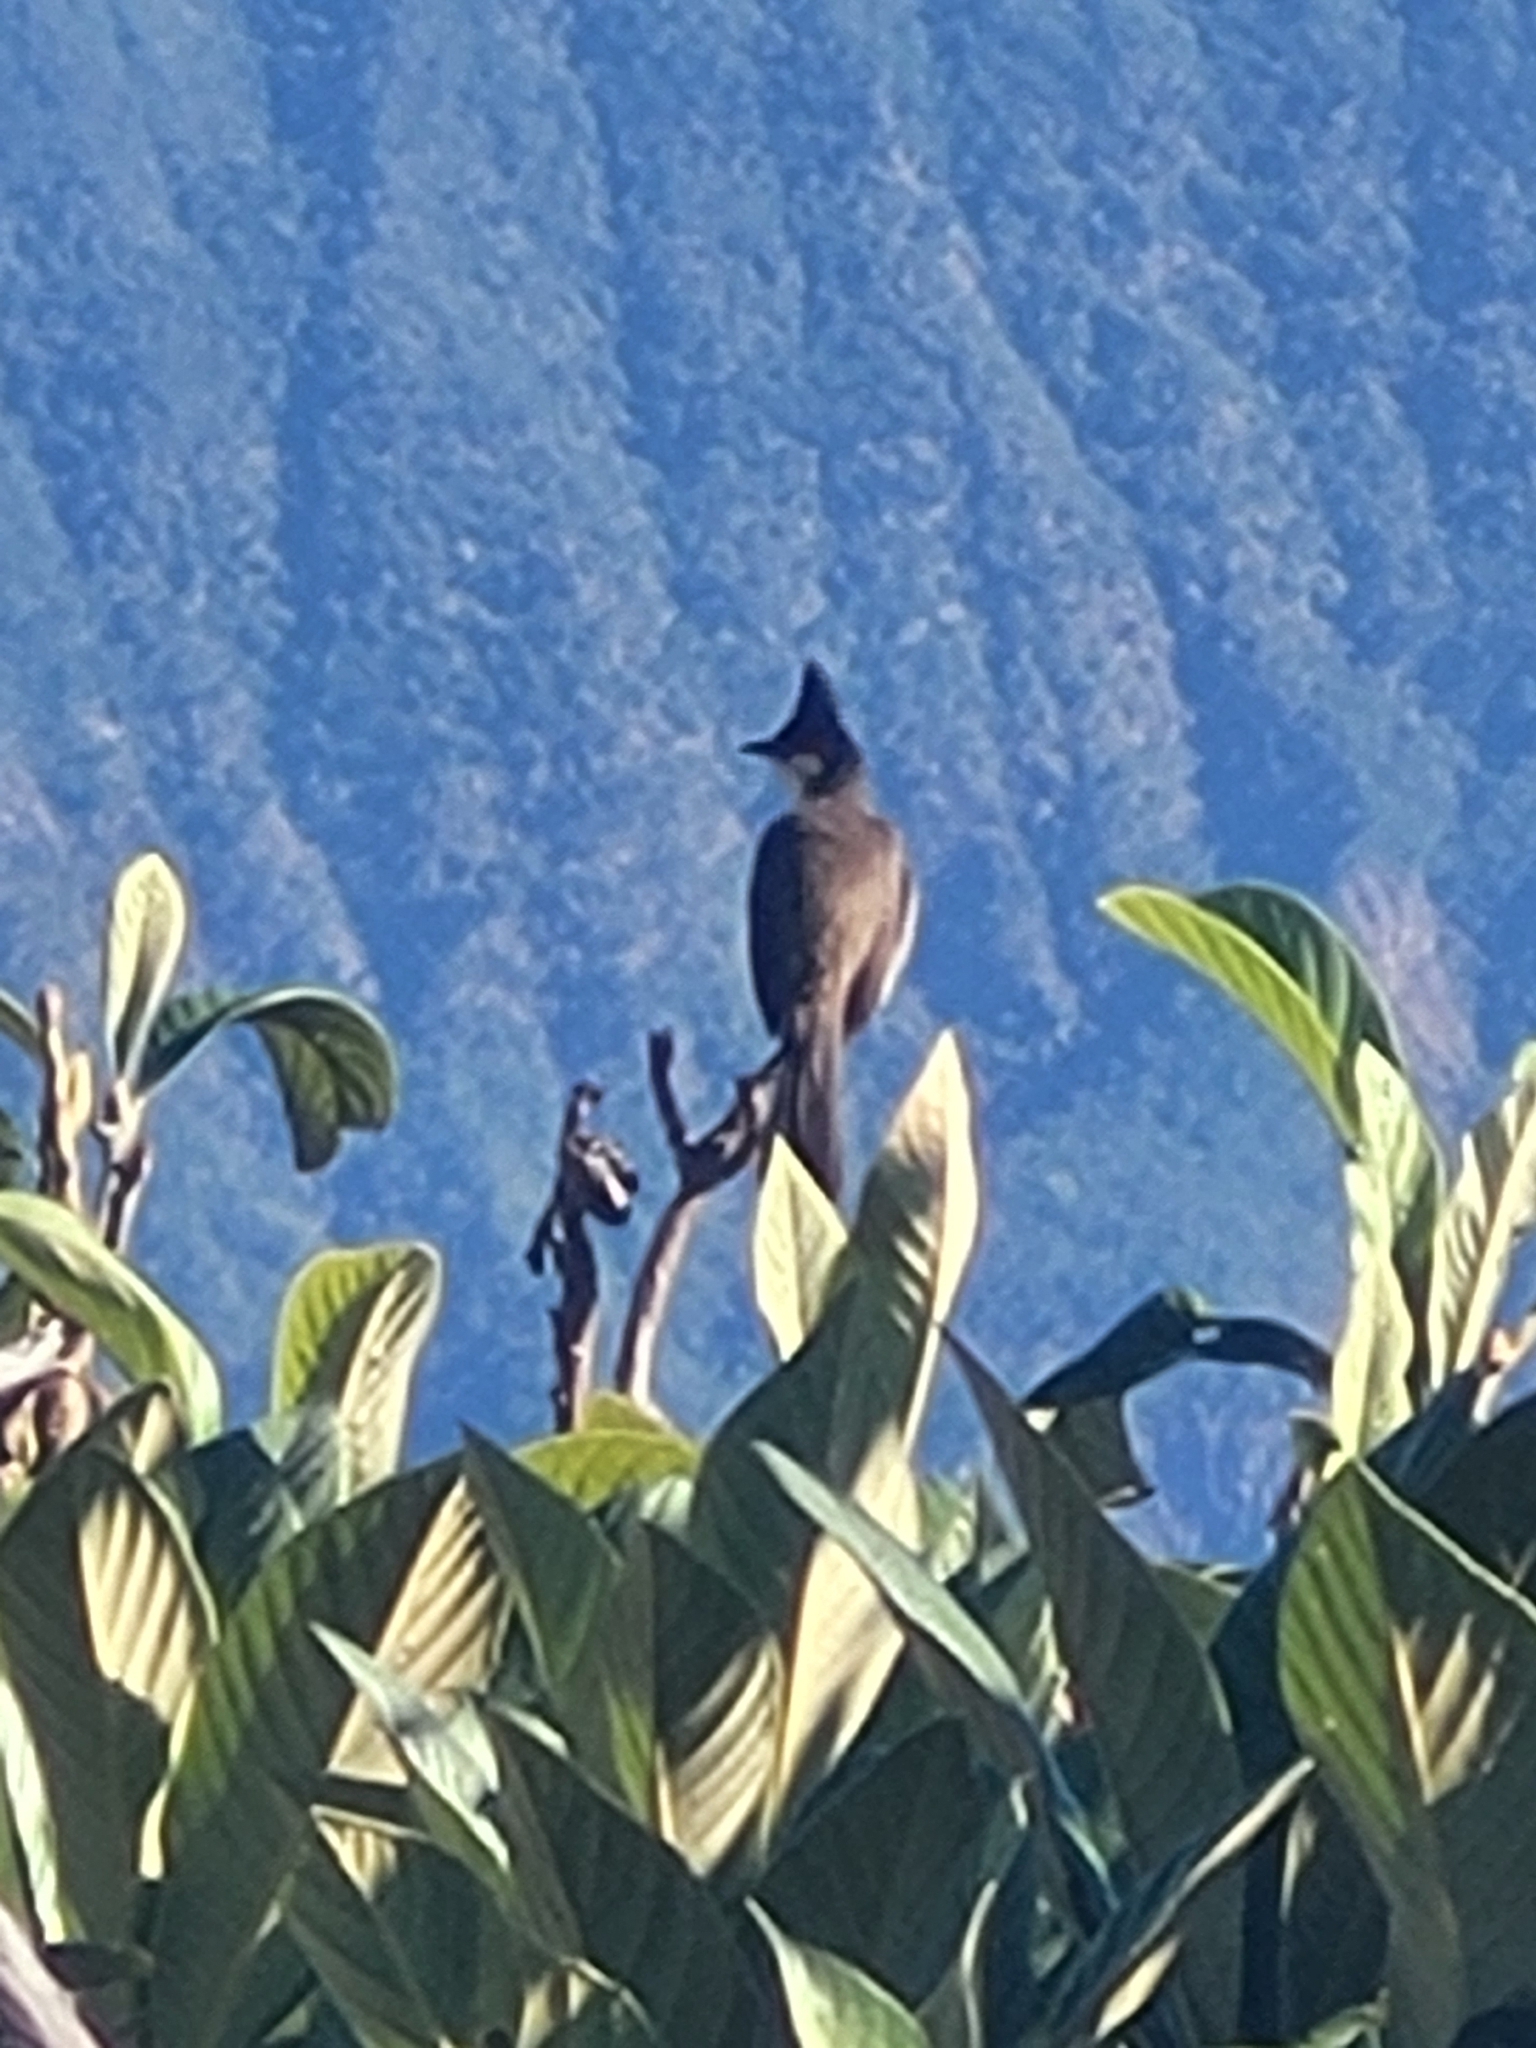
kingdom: Animalia
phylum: Chordata
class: Aves
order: Passeriformes
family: Pycnonotidae
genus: Pycnonotus
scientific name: Pycnonotus jocosus
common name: Red-whiskered bulbul
